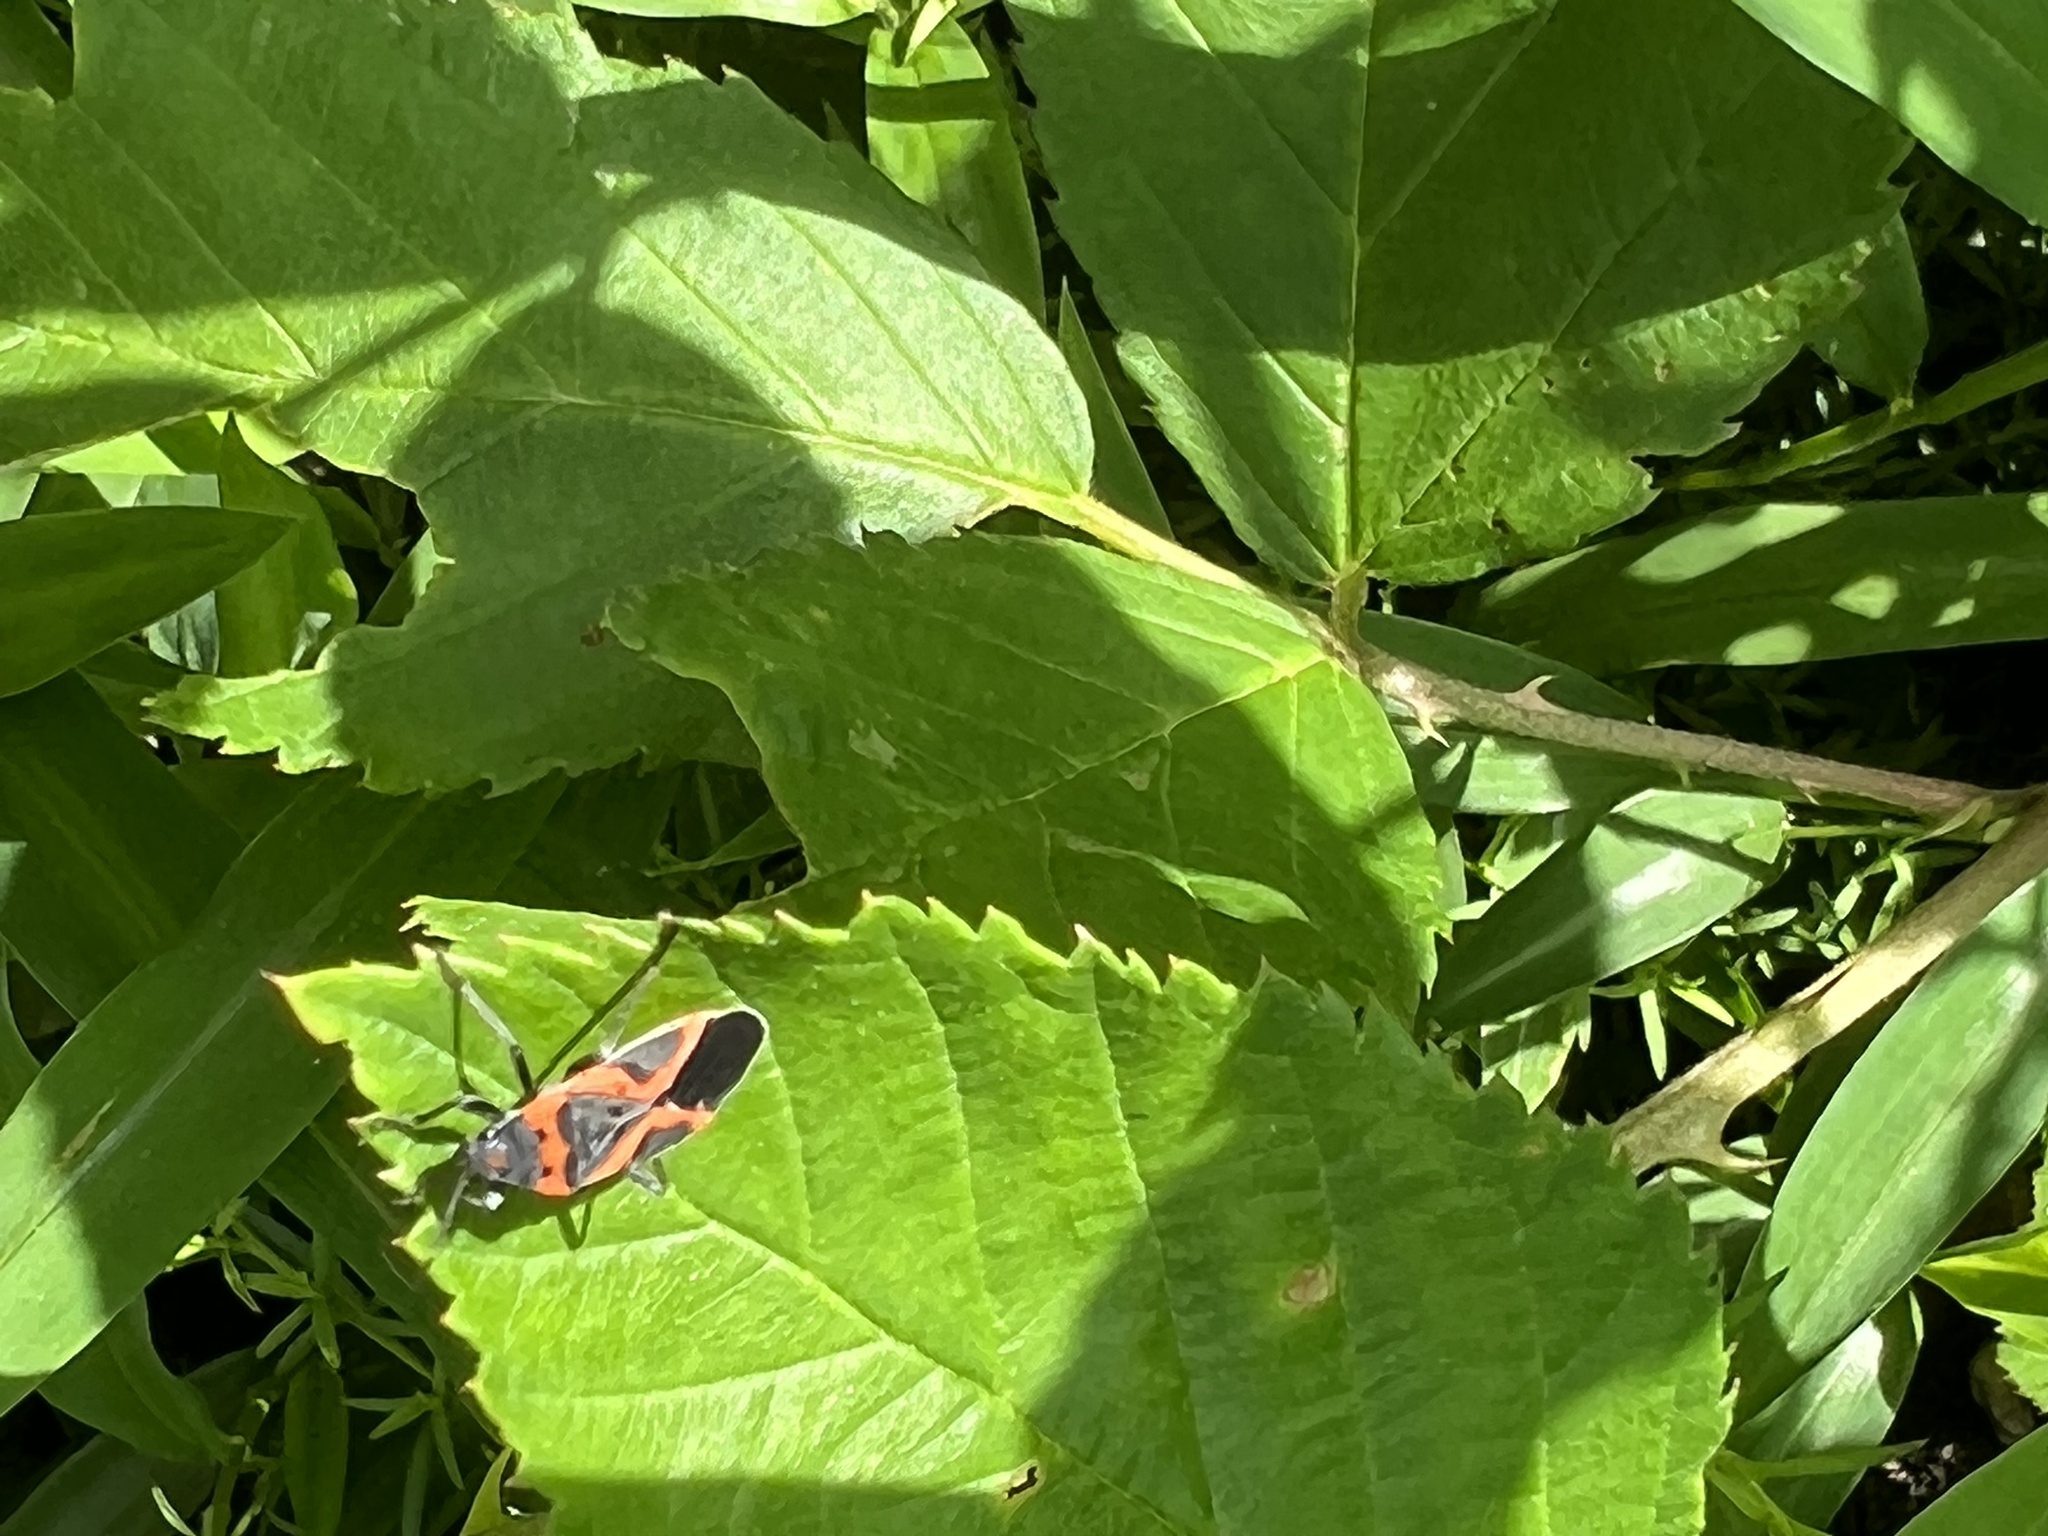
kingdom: Animalia
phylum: Arthropoda
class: Insecta
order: Hemiptera
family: Lygaeidae
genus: Lygaeus
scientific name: Lygaeus kalmii
